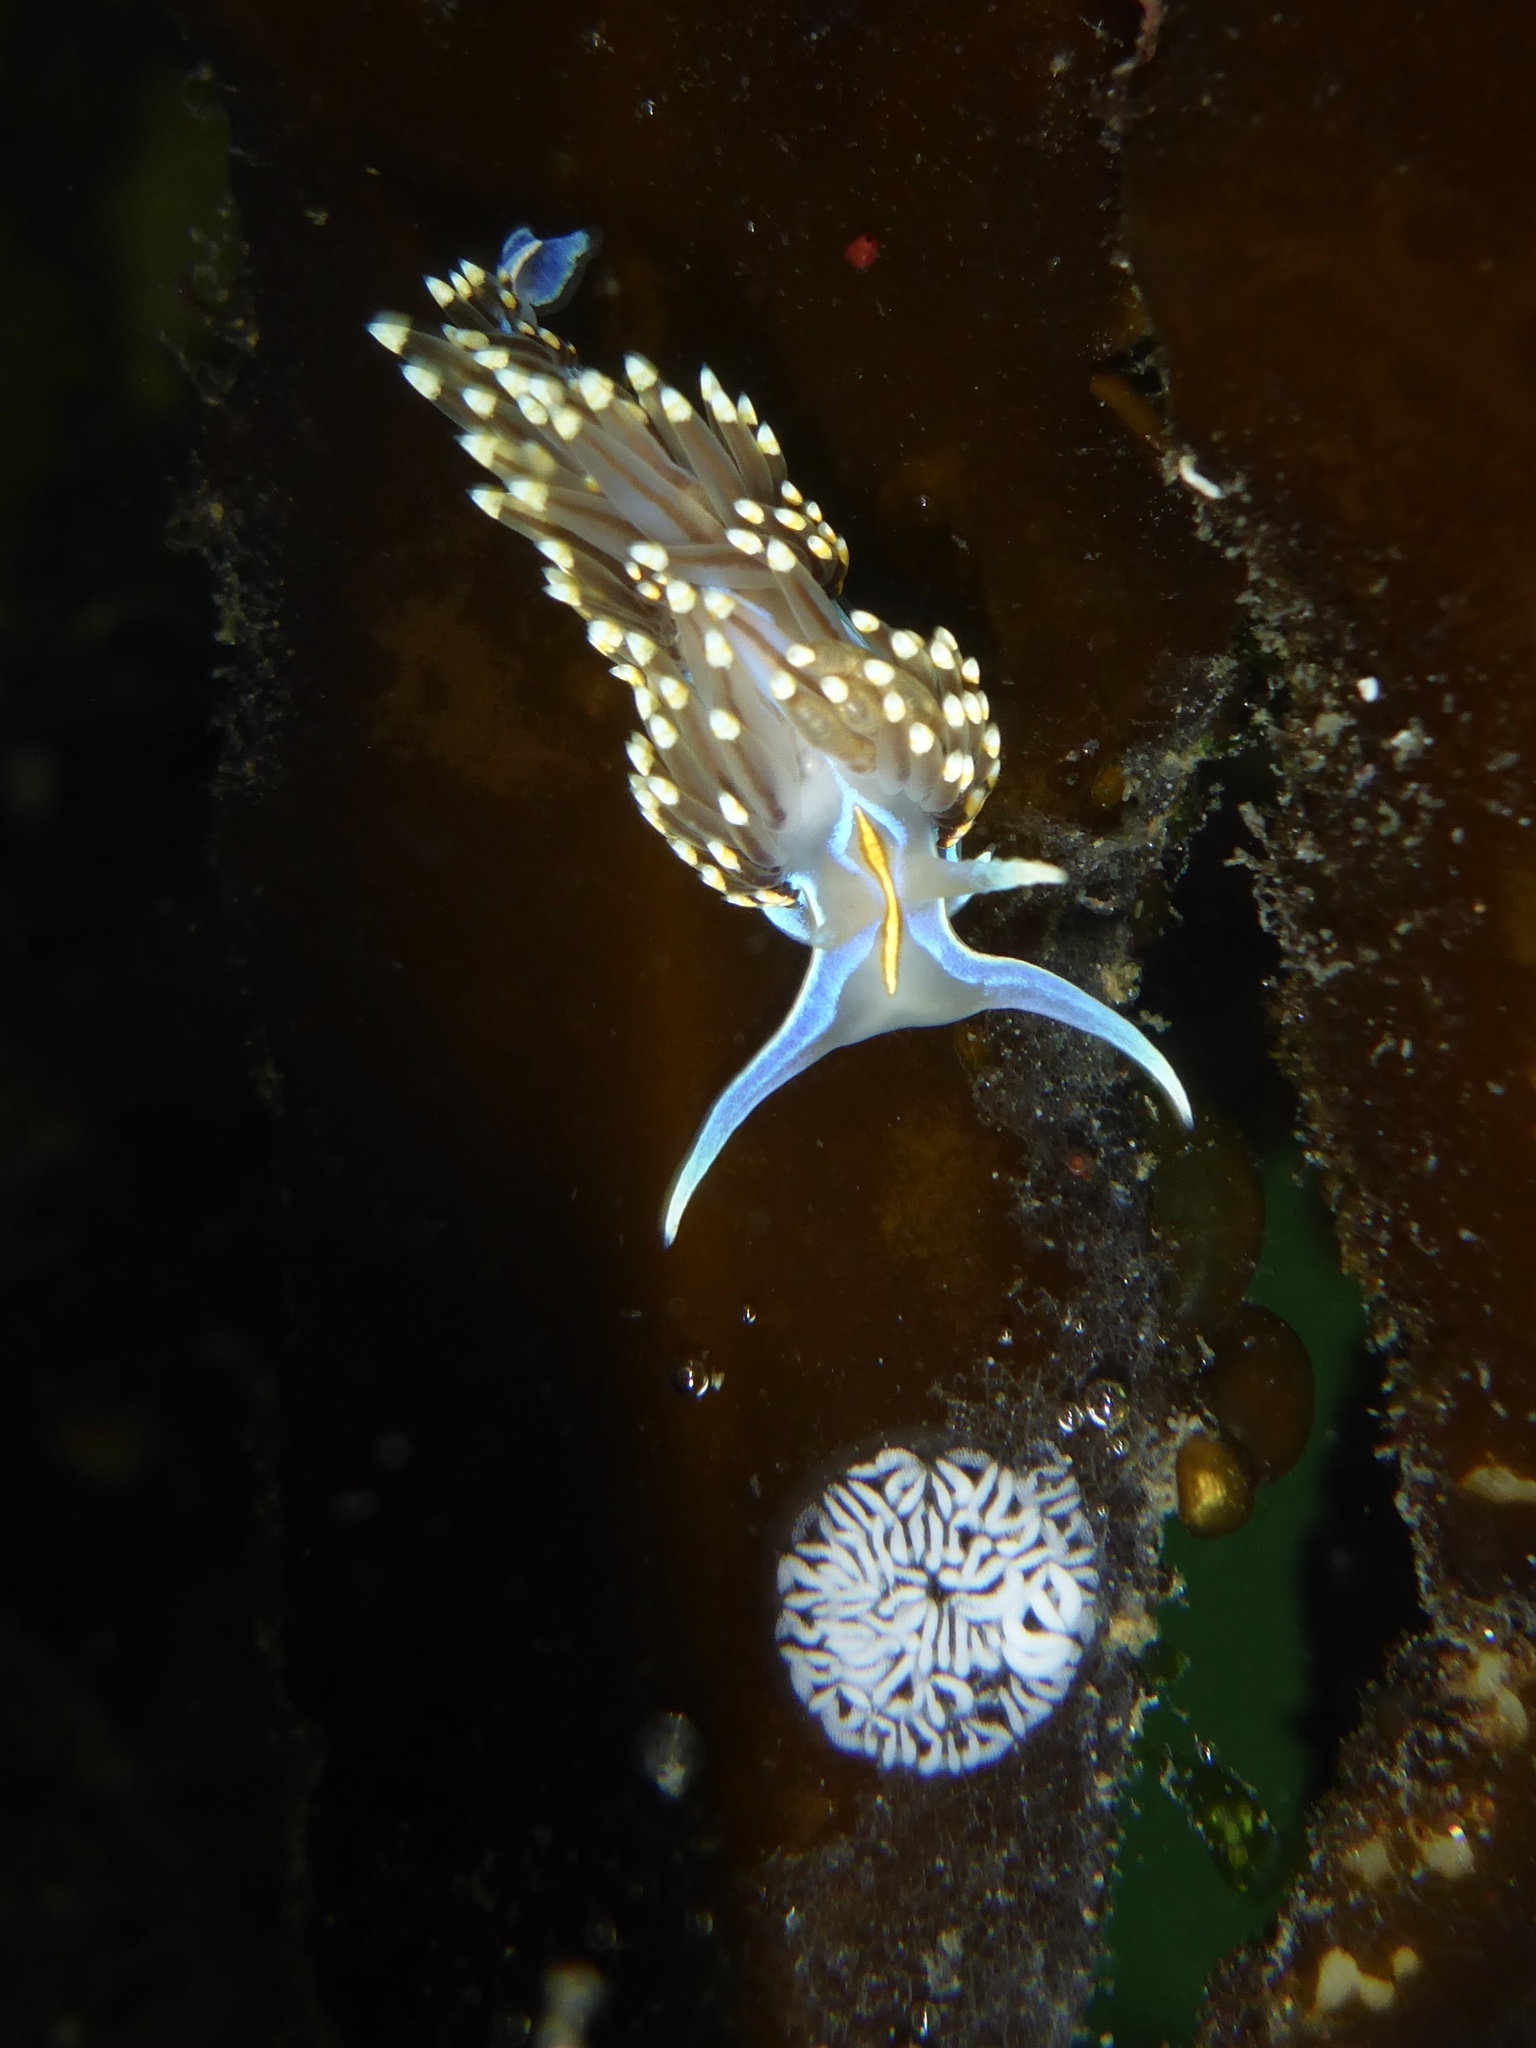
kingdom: Animalia
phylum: Mollusca
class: Gastropoda
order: Nudibranchia
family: Myrrhinidae
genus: Hermissenda
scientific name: Hermissenda opalescens
